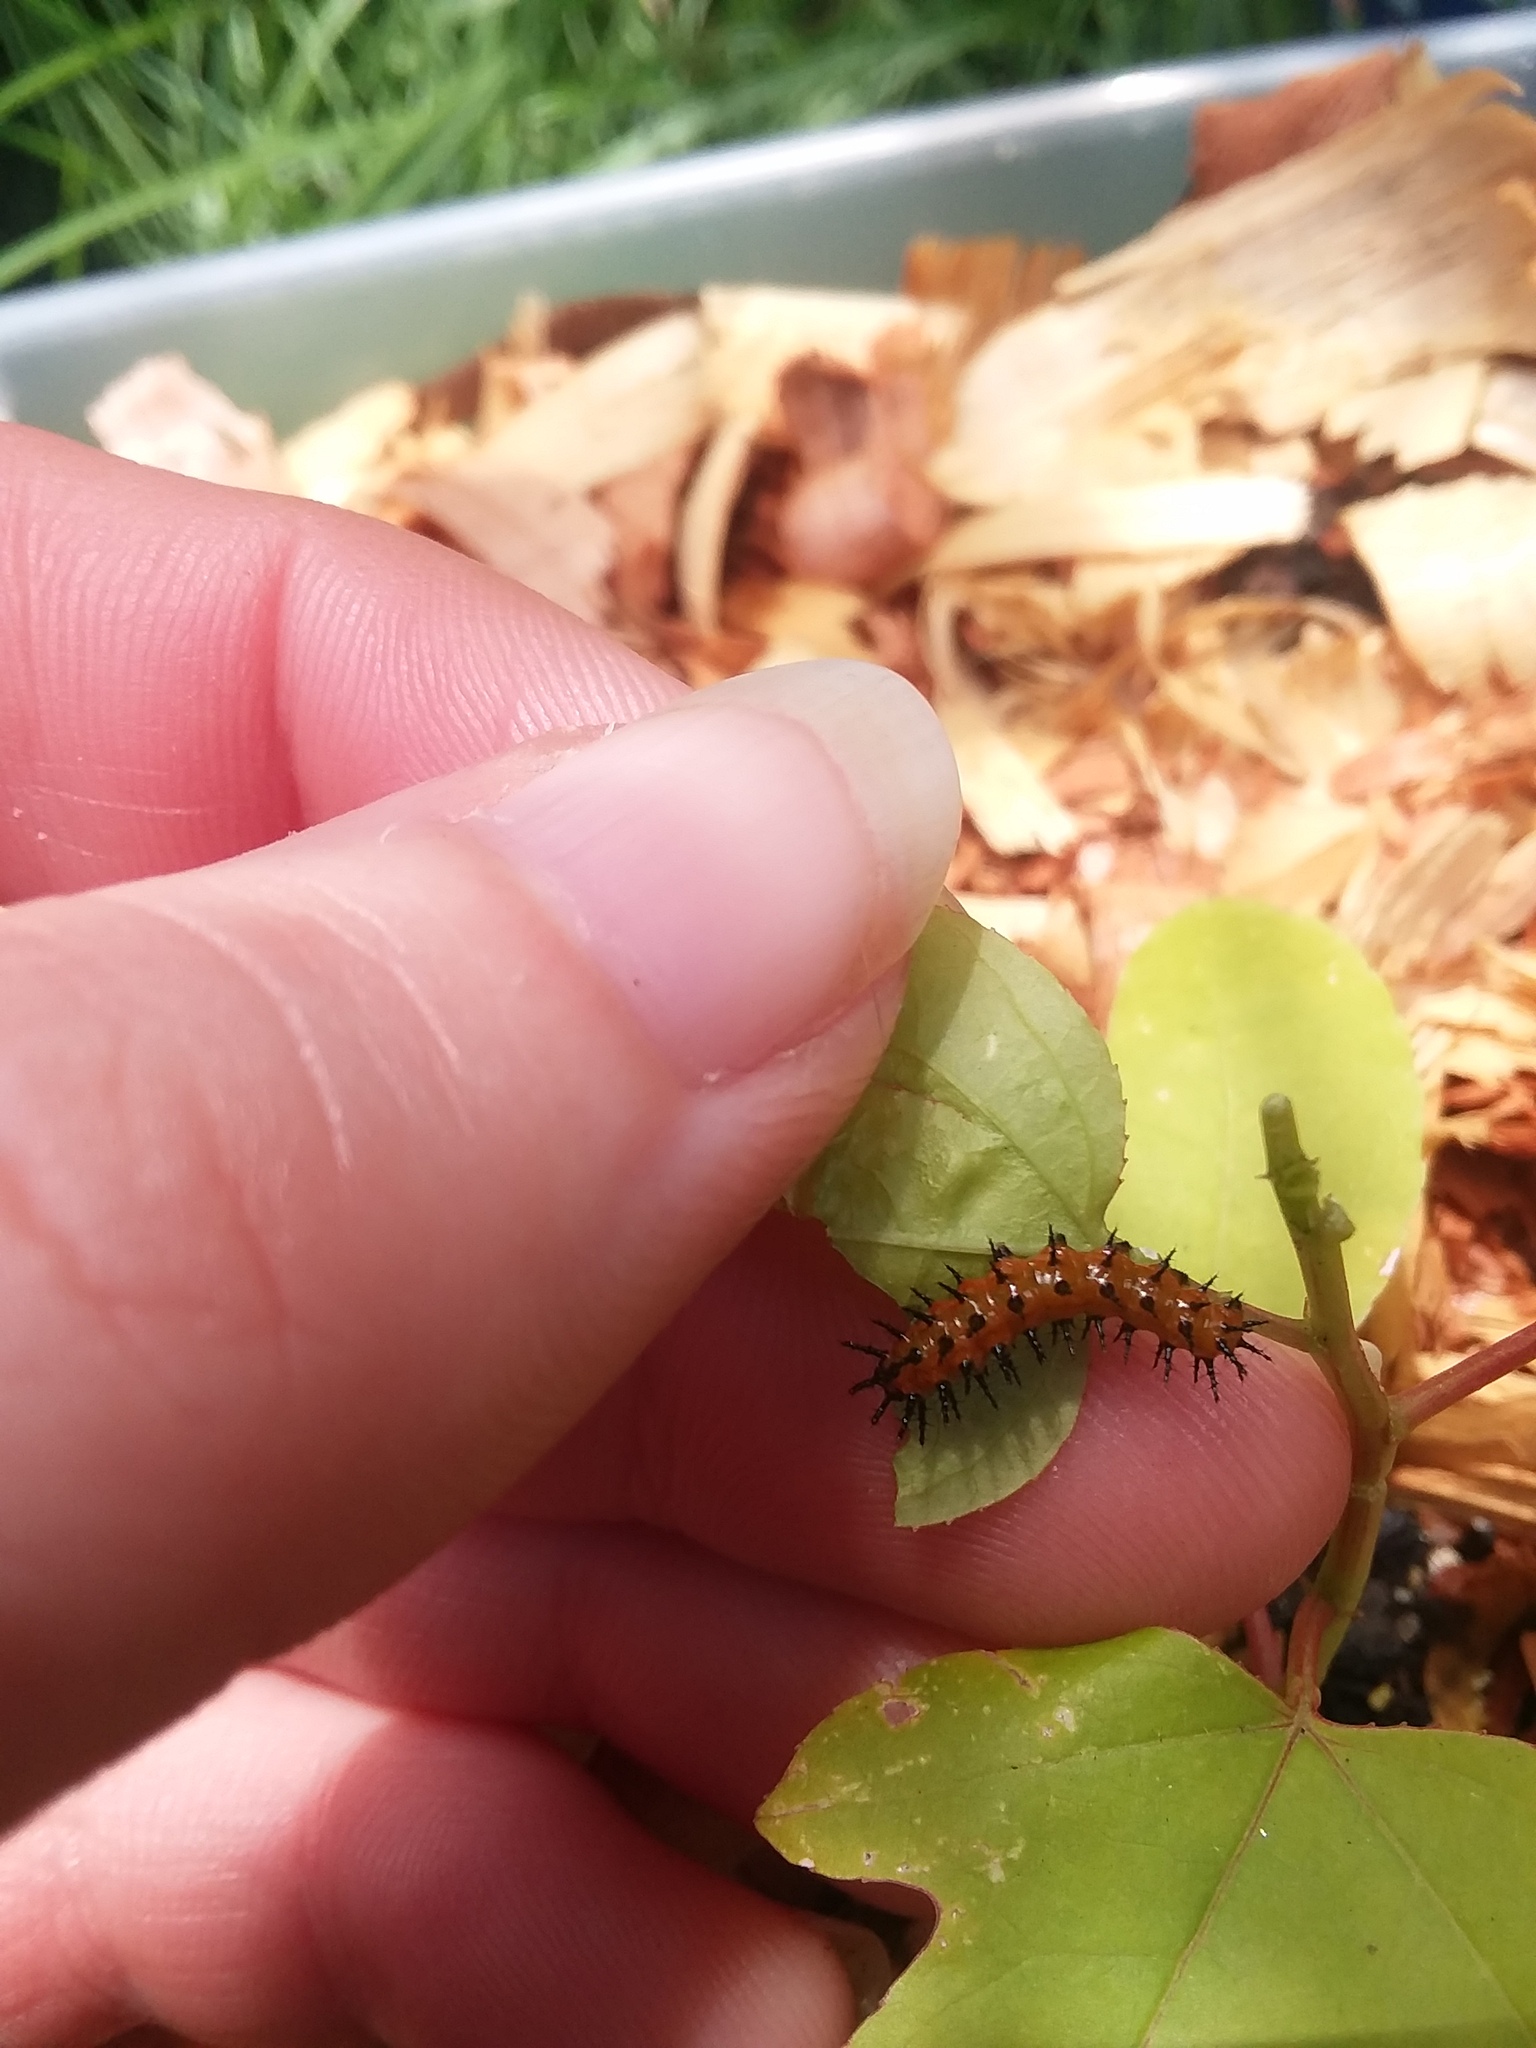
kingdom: Animalia
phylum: Arthropoda
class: Insecta
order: Lepidoptera
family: Nymphalidae
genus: Dione
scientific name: Dione vanillae
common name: Gulf fritillary
